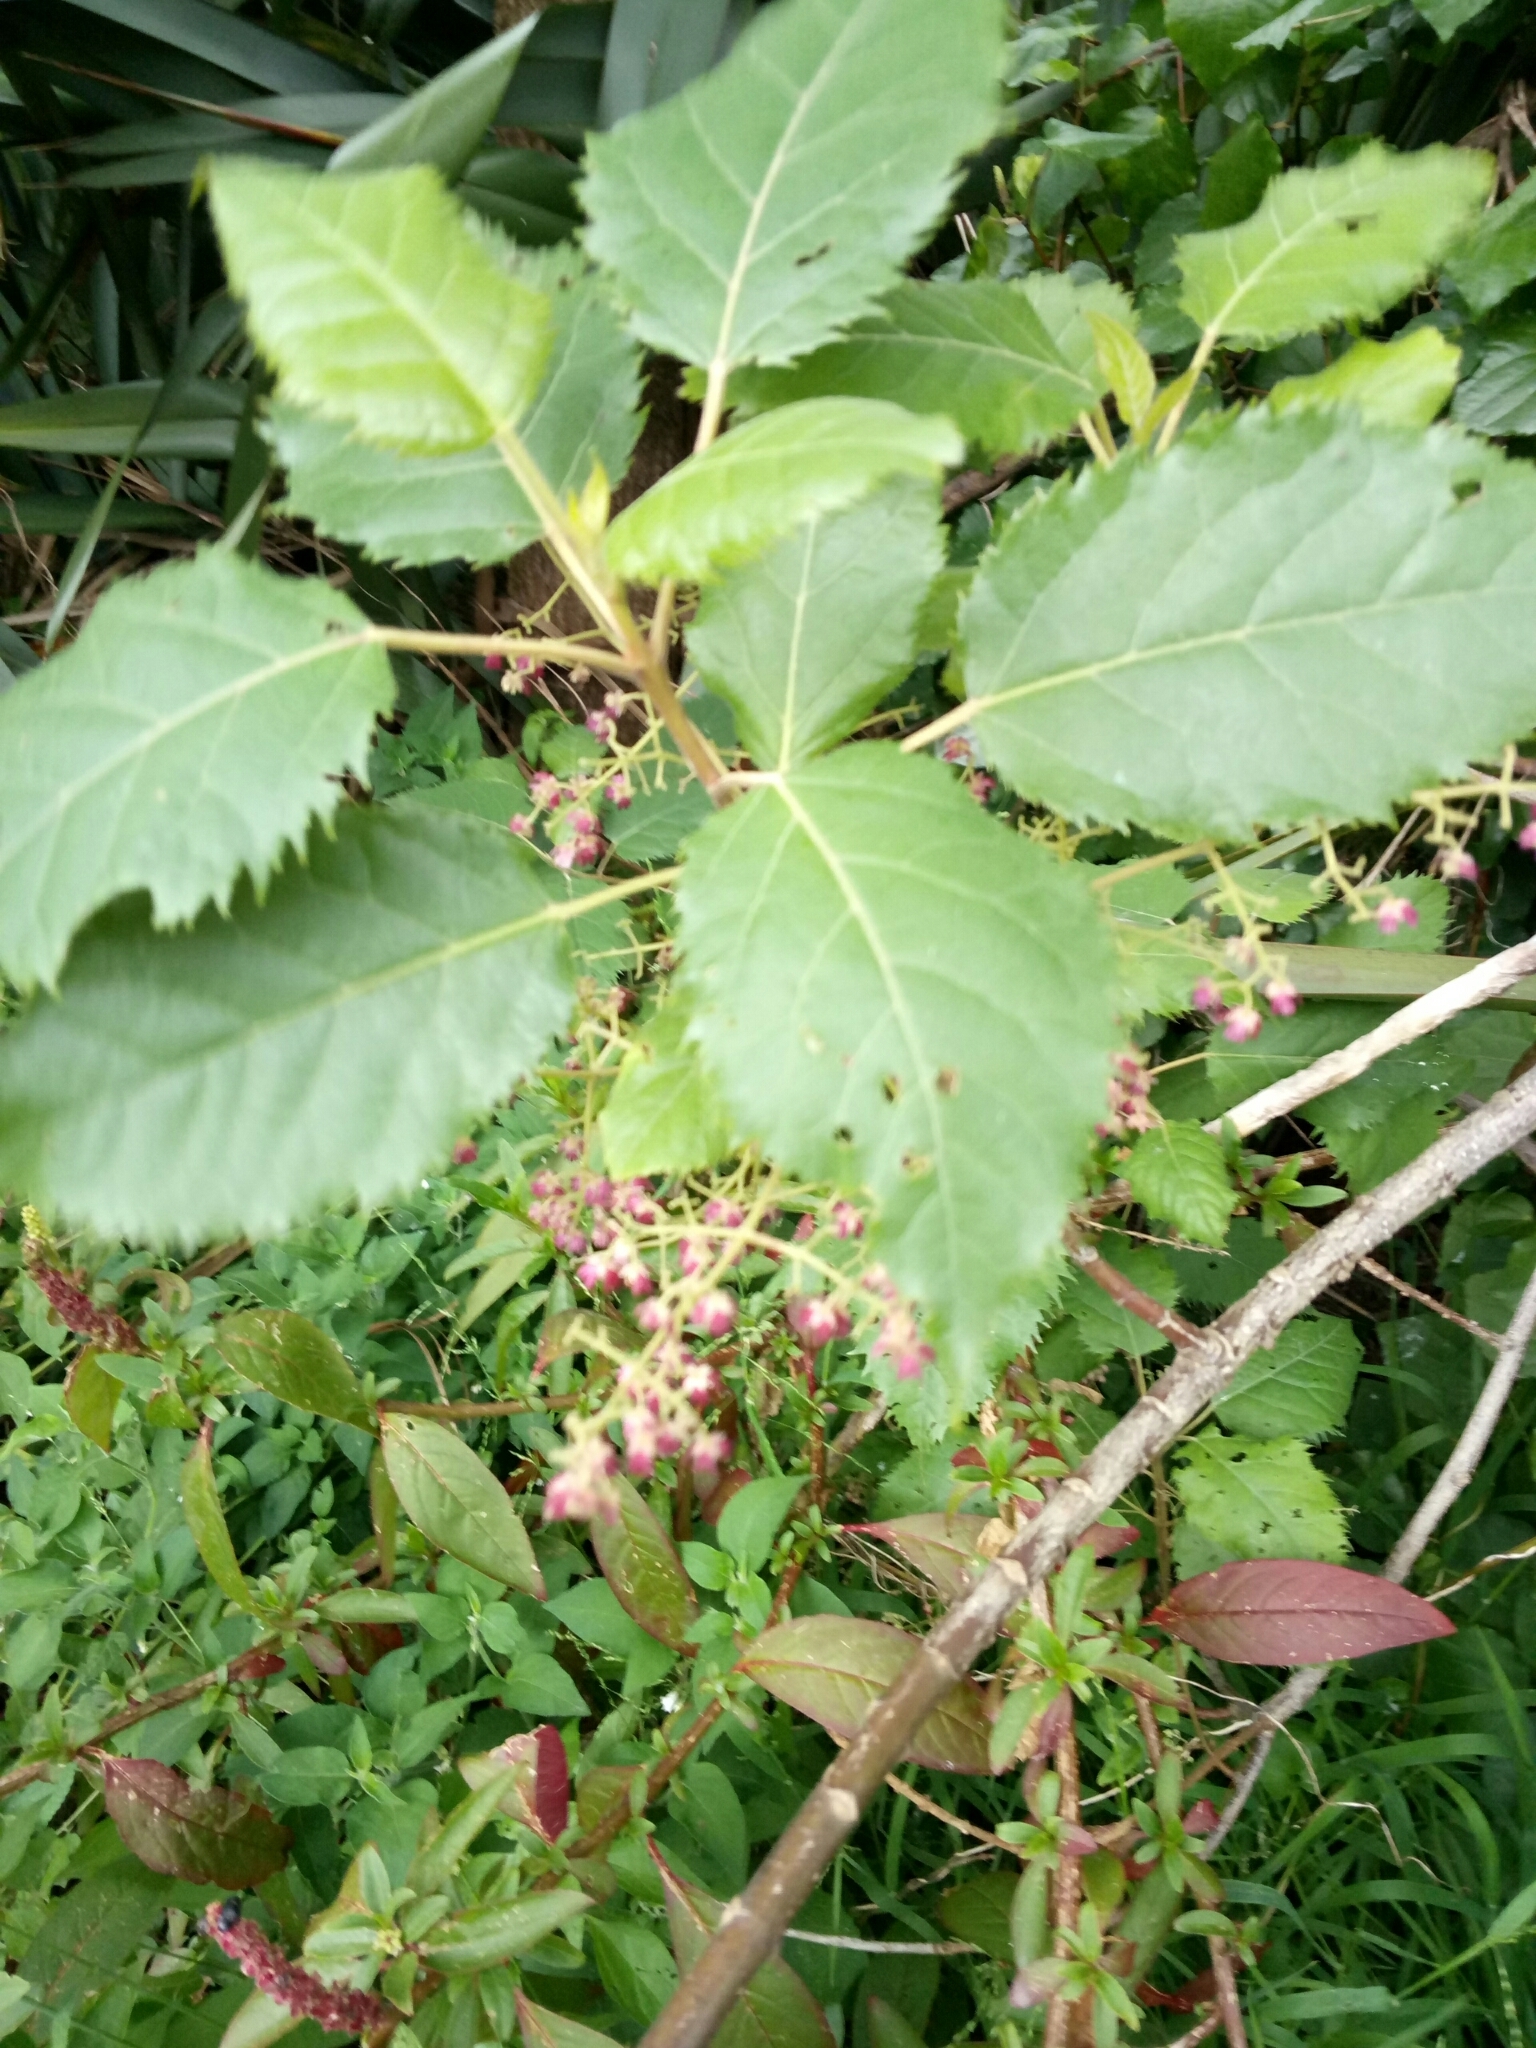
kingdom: Plantae
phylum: Tracheophyta
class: Magnoliopsida
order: Oxalidales
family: Elaeocarpaceae
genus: Aristotelia
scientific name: Aristotelia serrata
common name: New zealand wineberry
